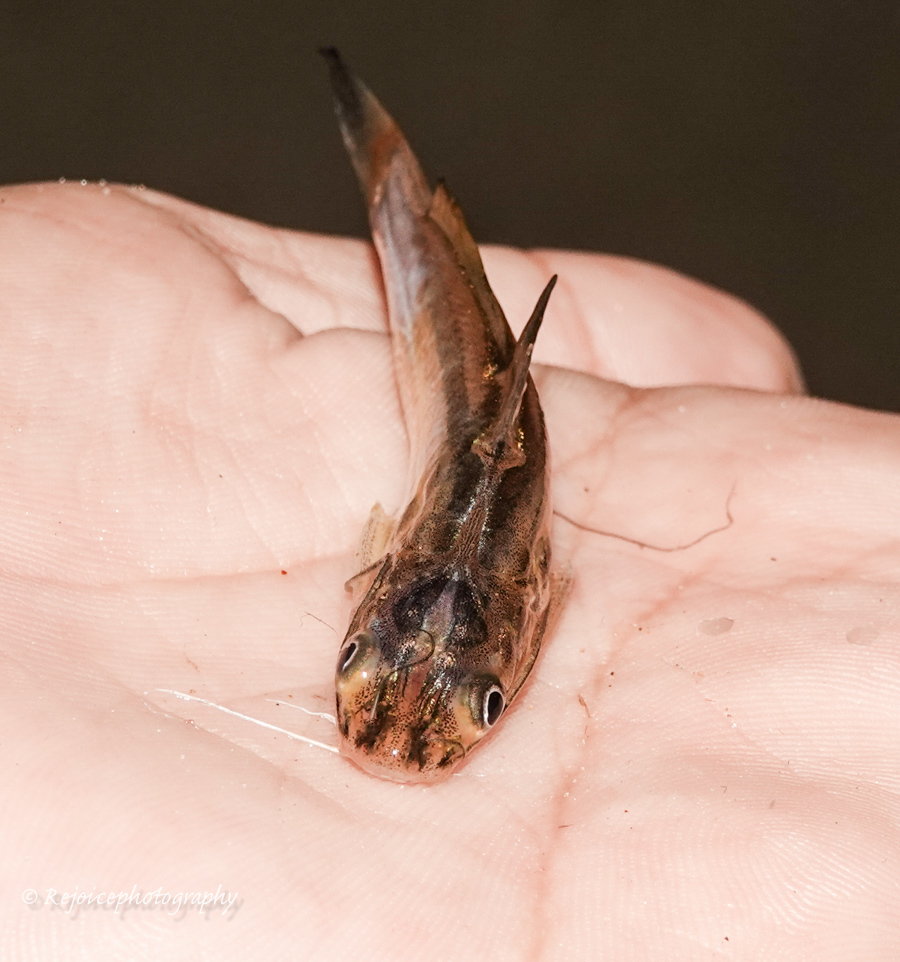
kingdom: Animalia
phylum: Chordata
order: Siluriformes
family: Bagridae
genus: Mystus
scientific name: Mystus tengara
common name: Stripped dwarf catfish
